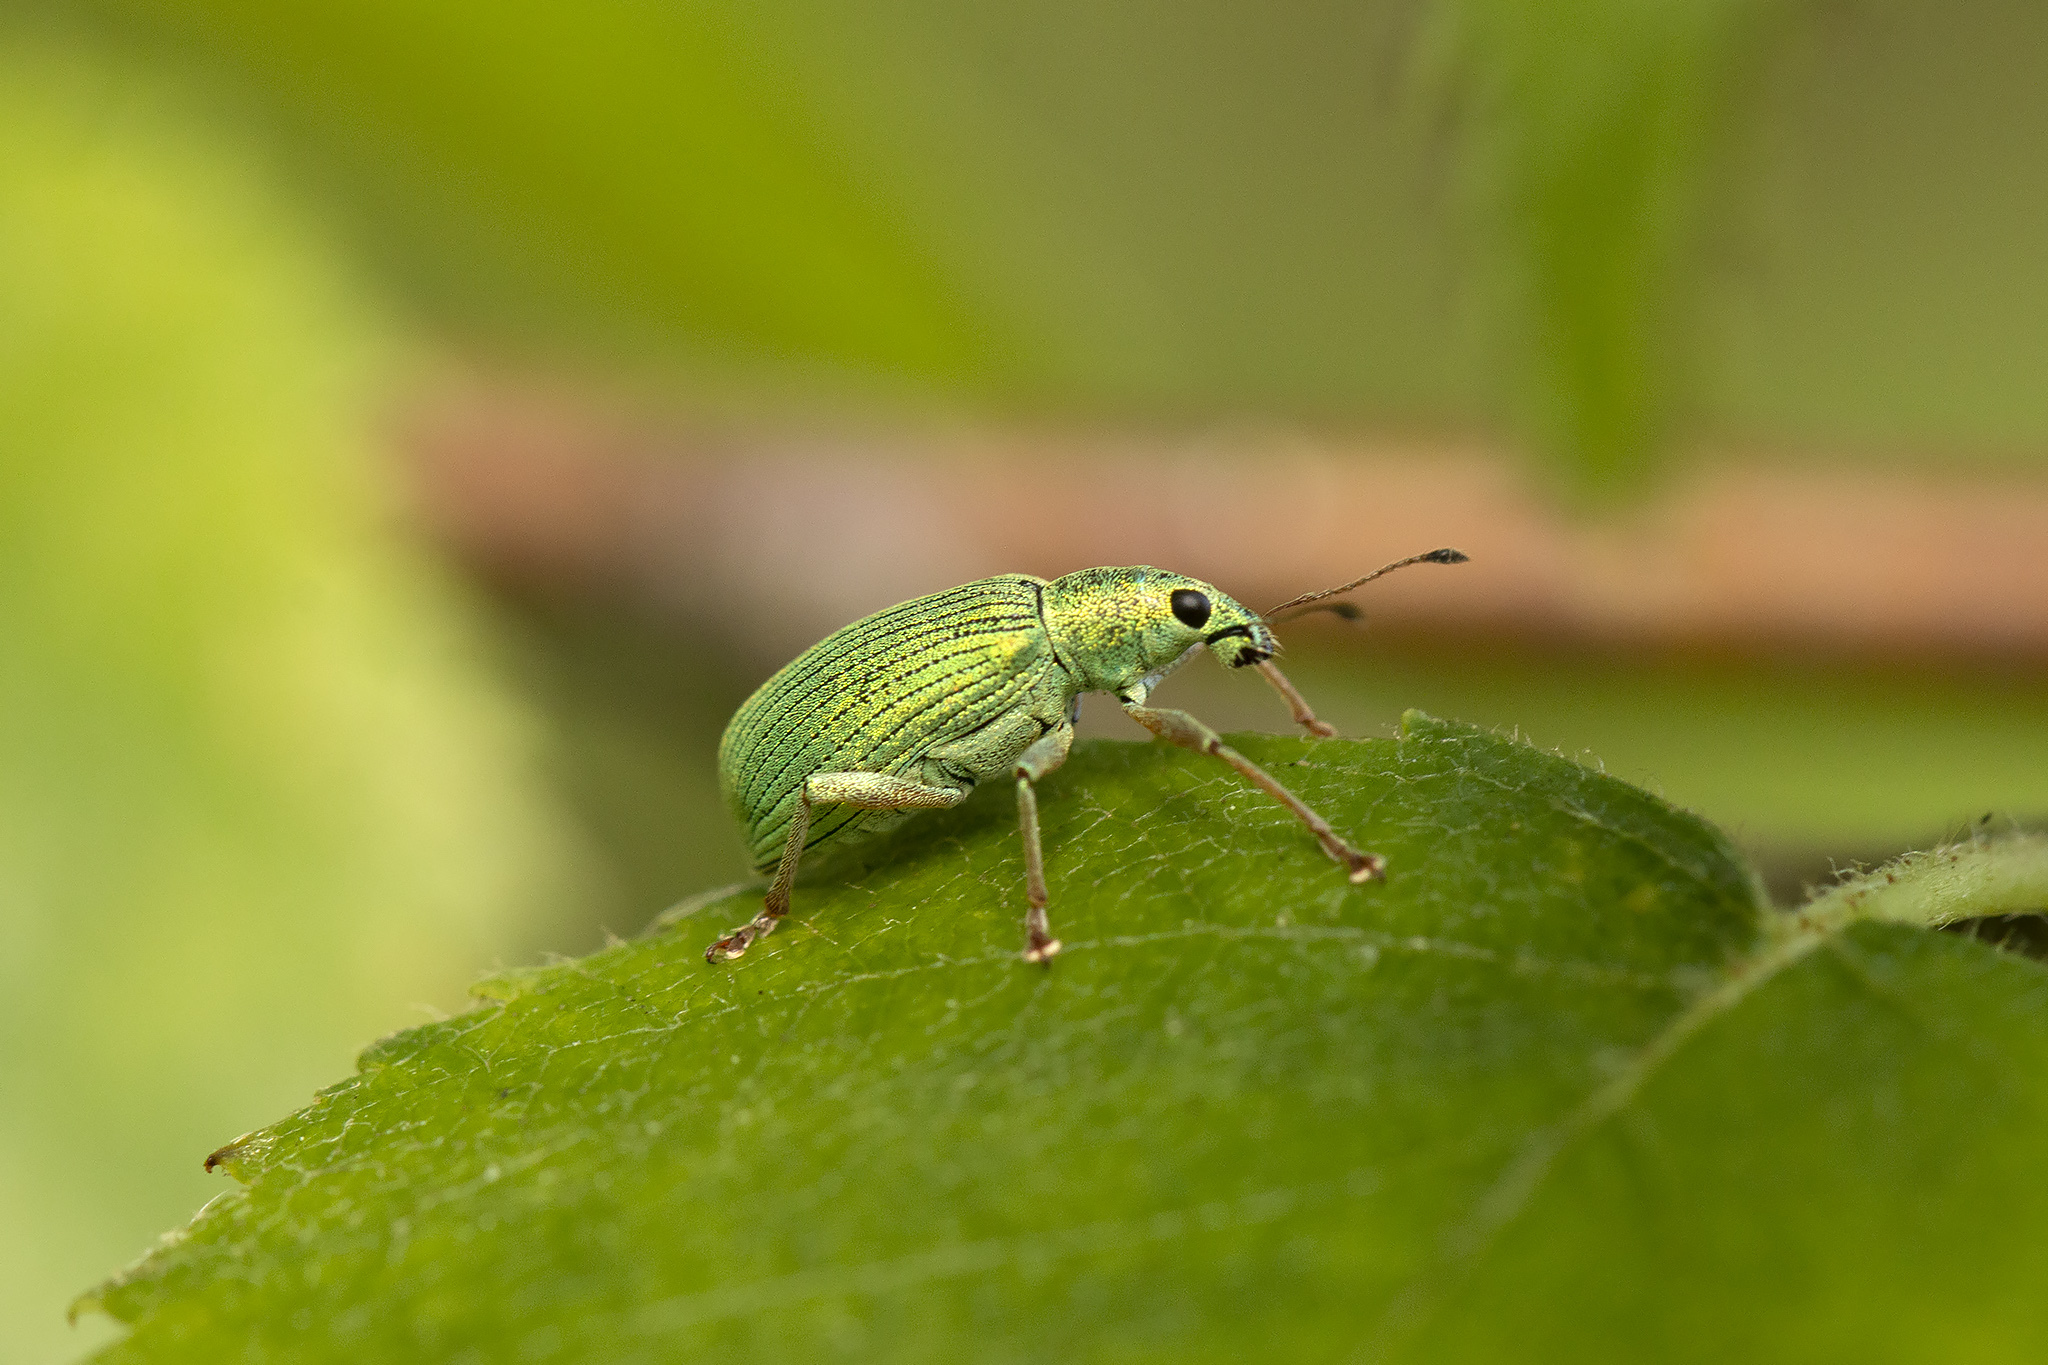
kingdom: Animalia
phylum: Arthropoda
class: Insecta
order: Coleoptera
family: Curculionidae
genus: Polydrusus
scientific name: Polydrusus formosus
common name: Weevil
